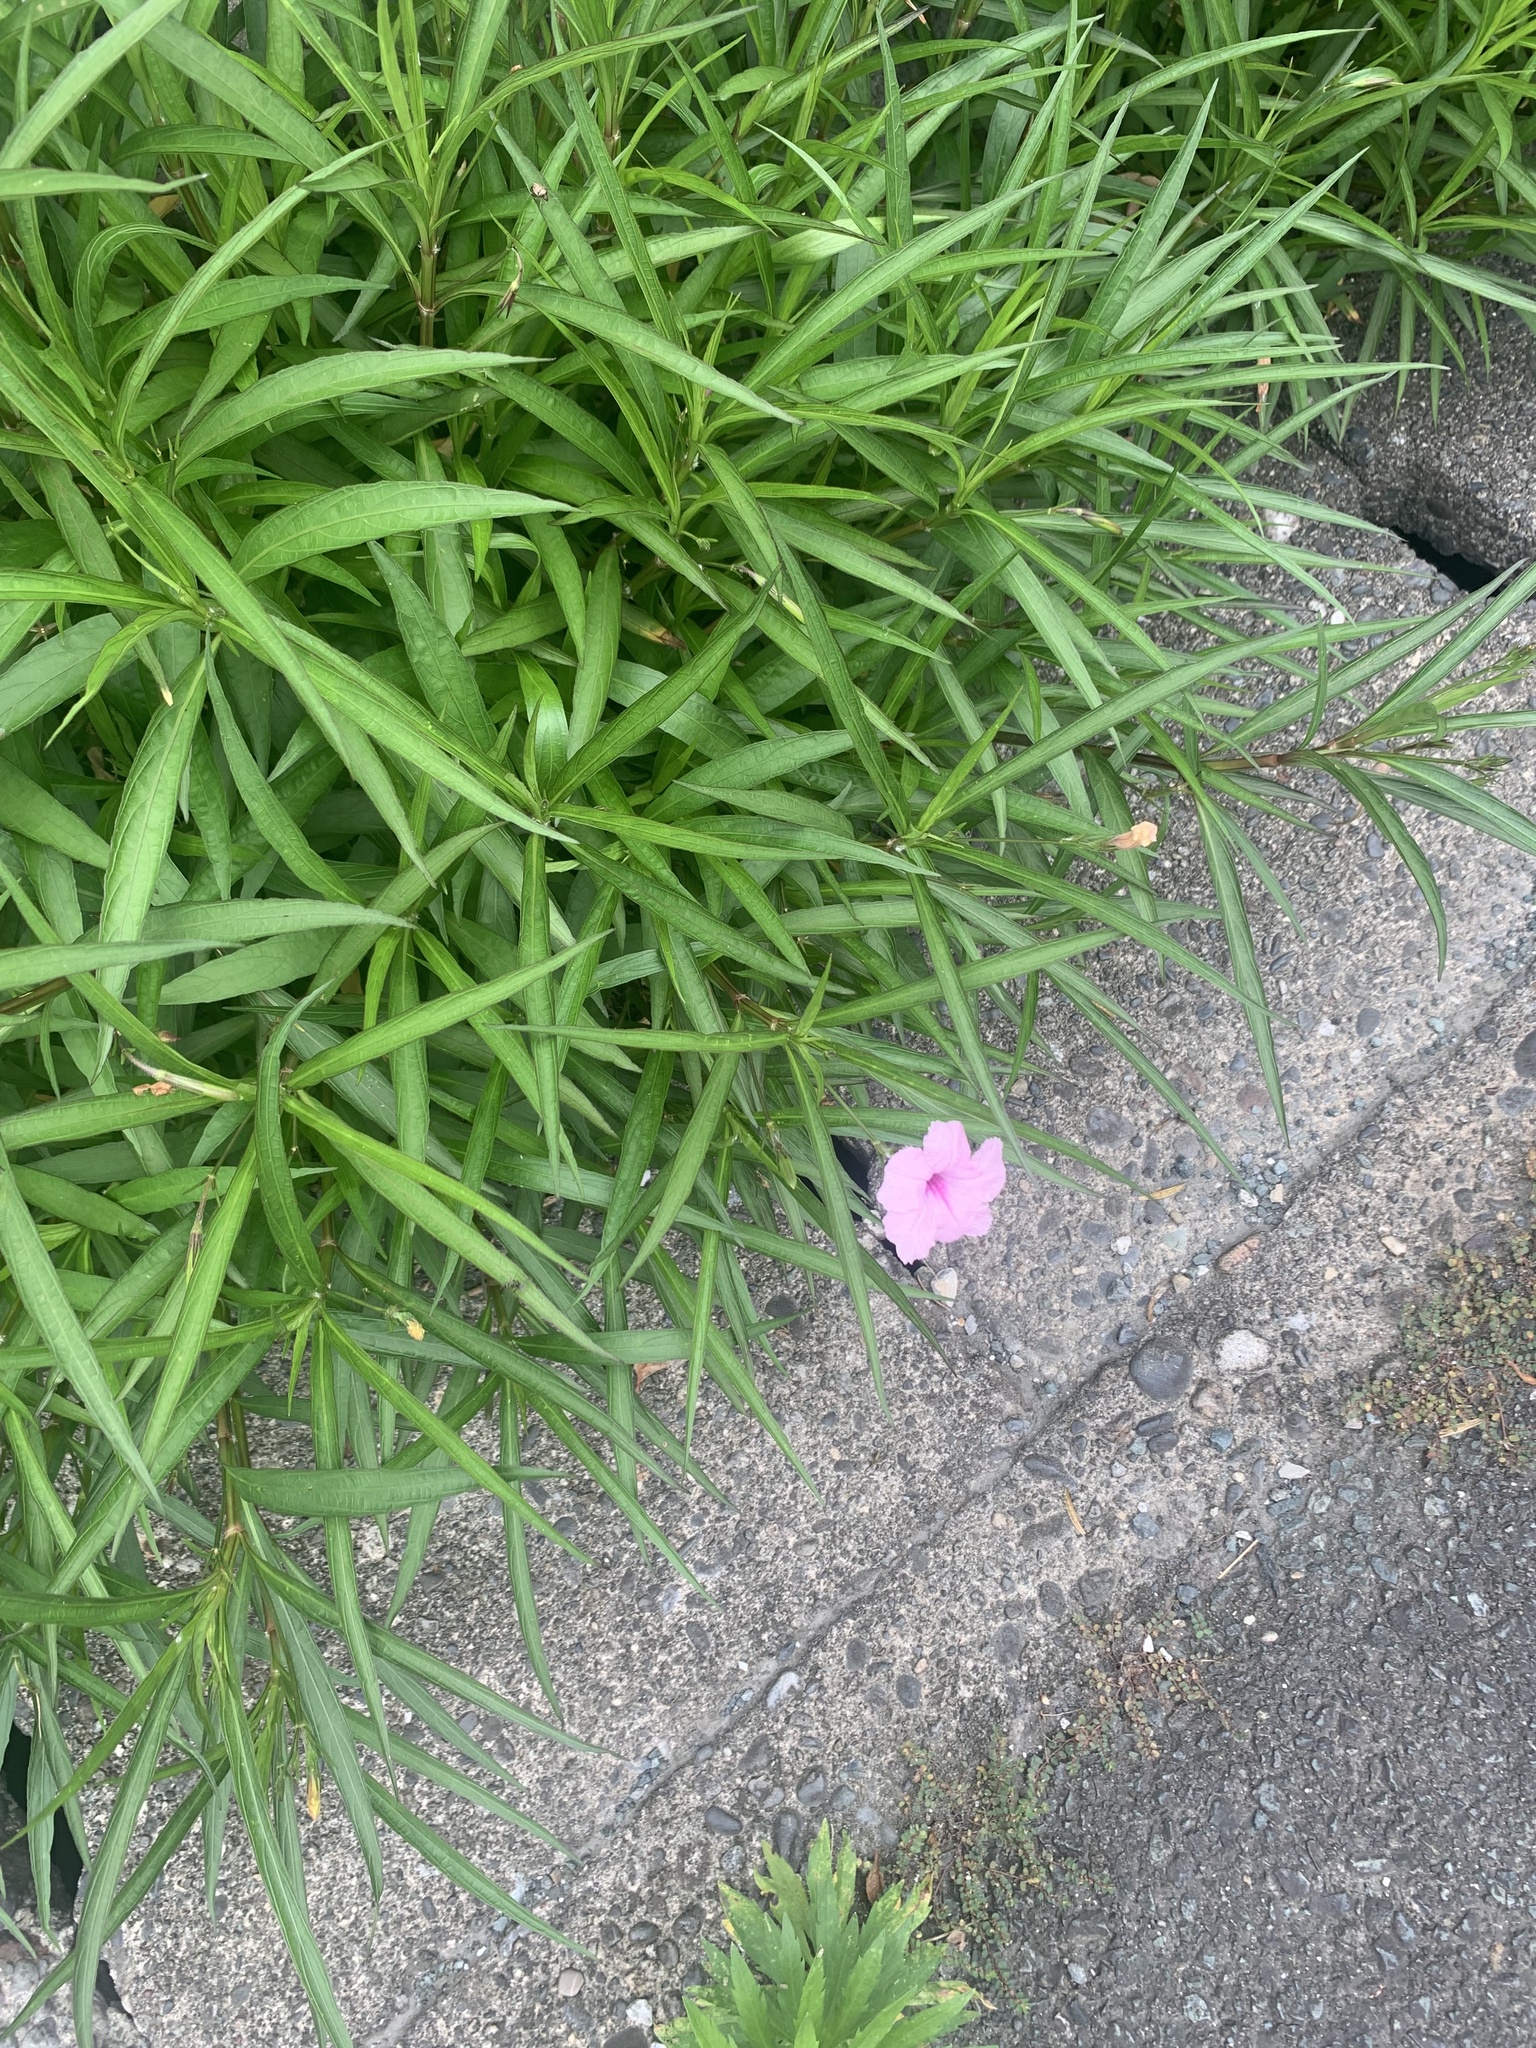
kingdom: Plantae
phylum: Tracheophyta
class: Magnoliopsida
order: Lamiales
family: Acanthaceae
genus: Ruellia
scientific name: Ruellia simplex
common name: Softseed wild petunia
